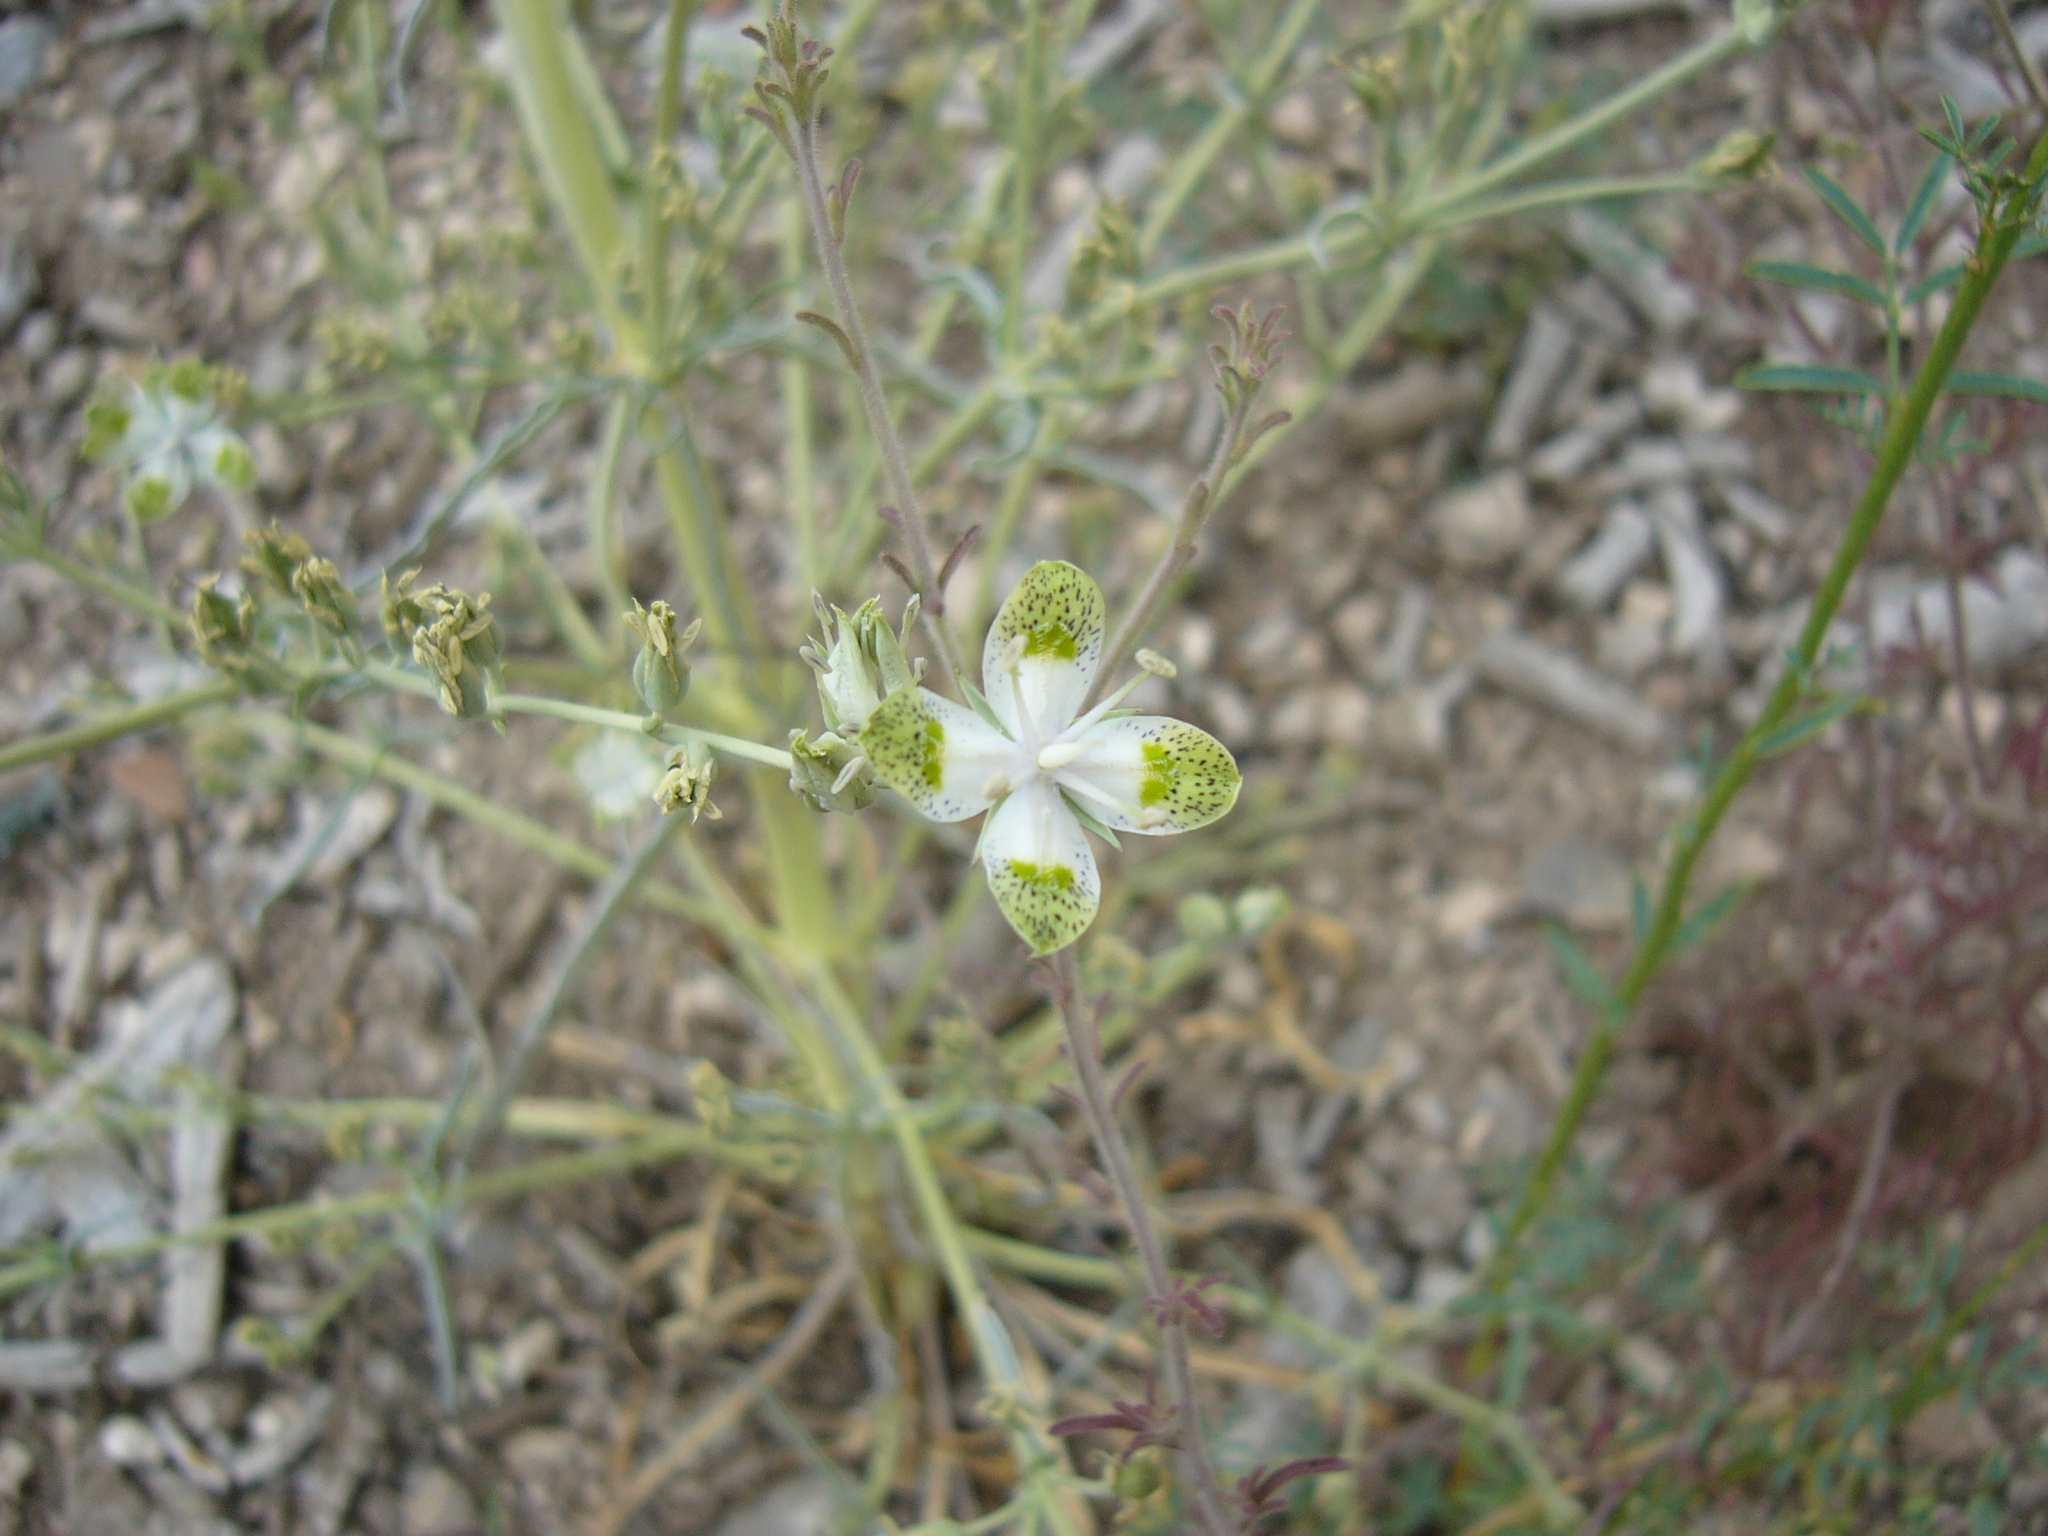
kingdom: Plantae
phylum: Tracheophyta
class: Magnoliopsida
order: Gentianales
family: Gentianaceae
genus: Frasera
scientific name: Frasera albomarginata
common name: Desert frasera
